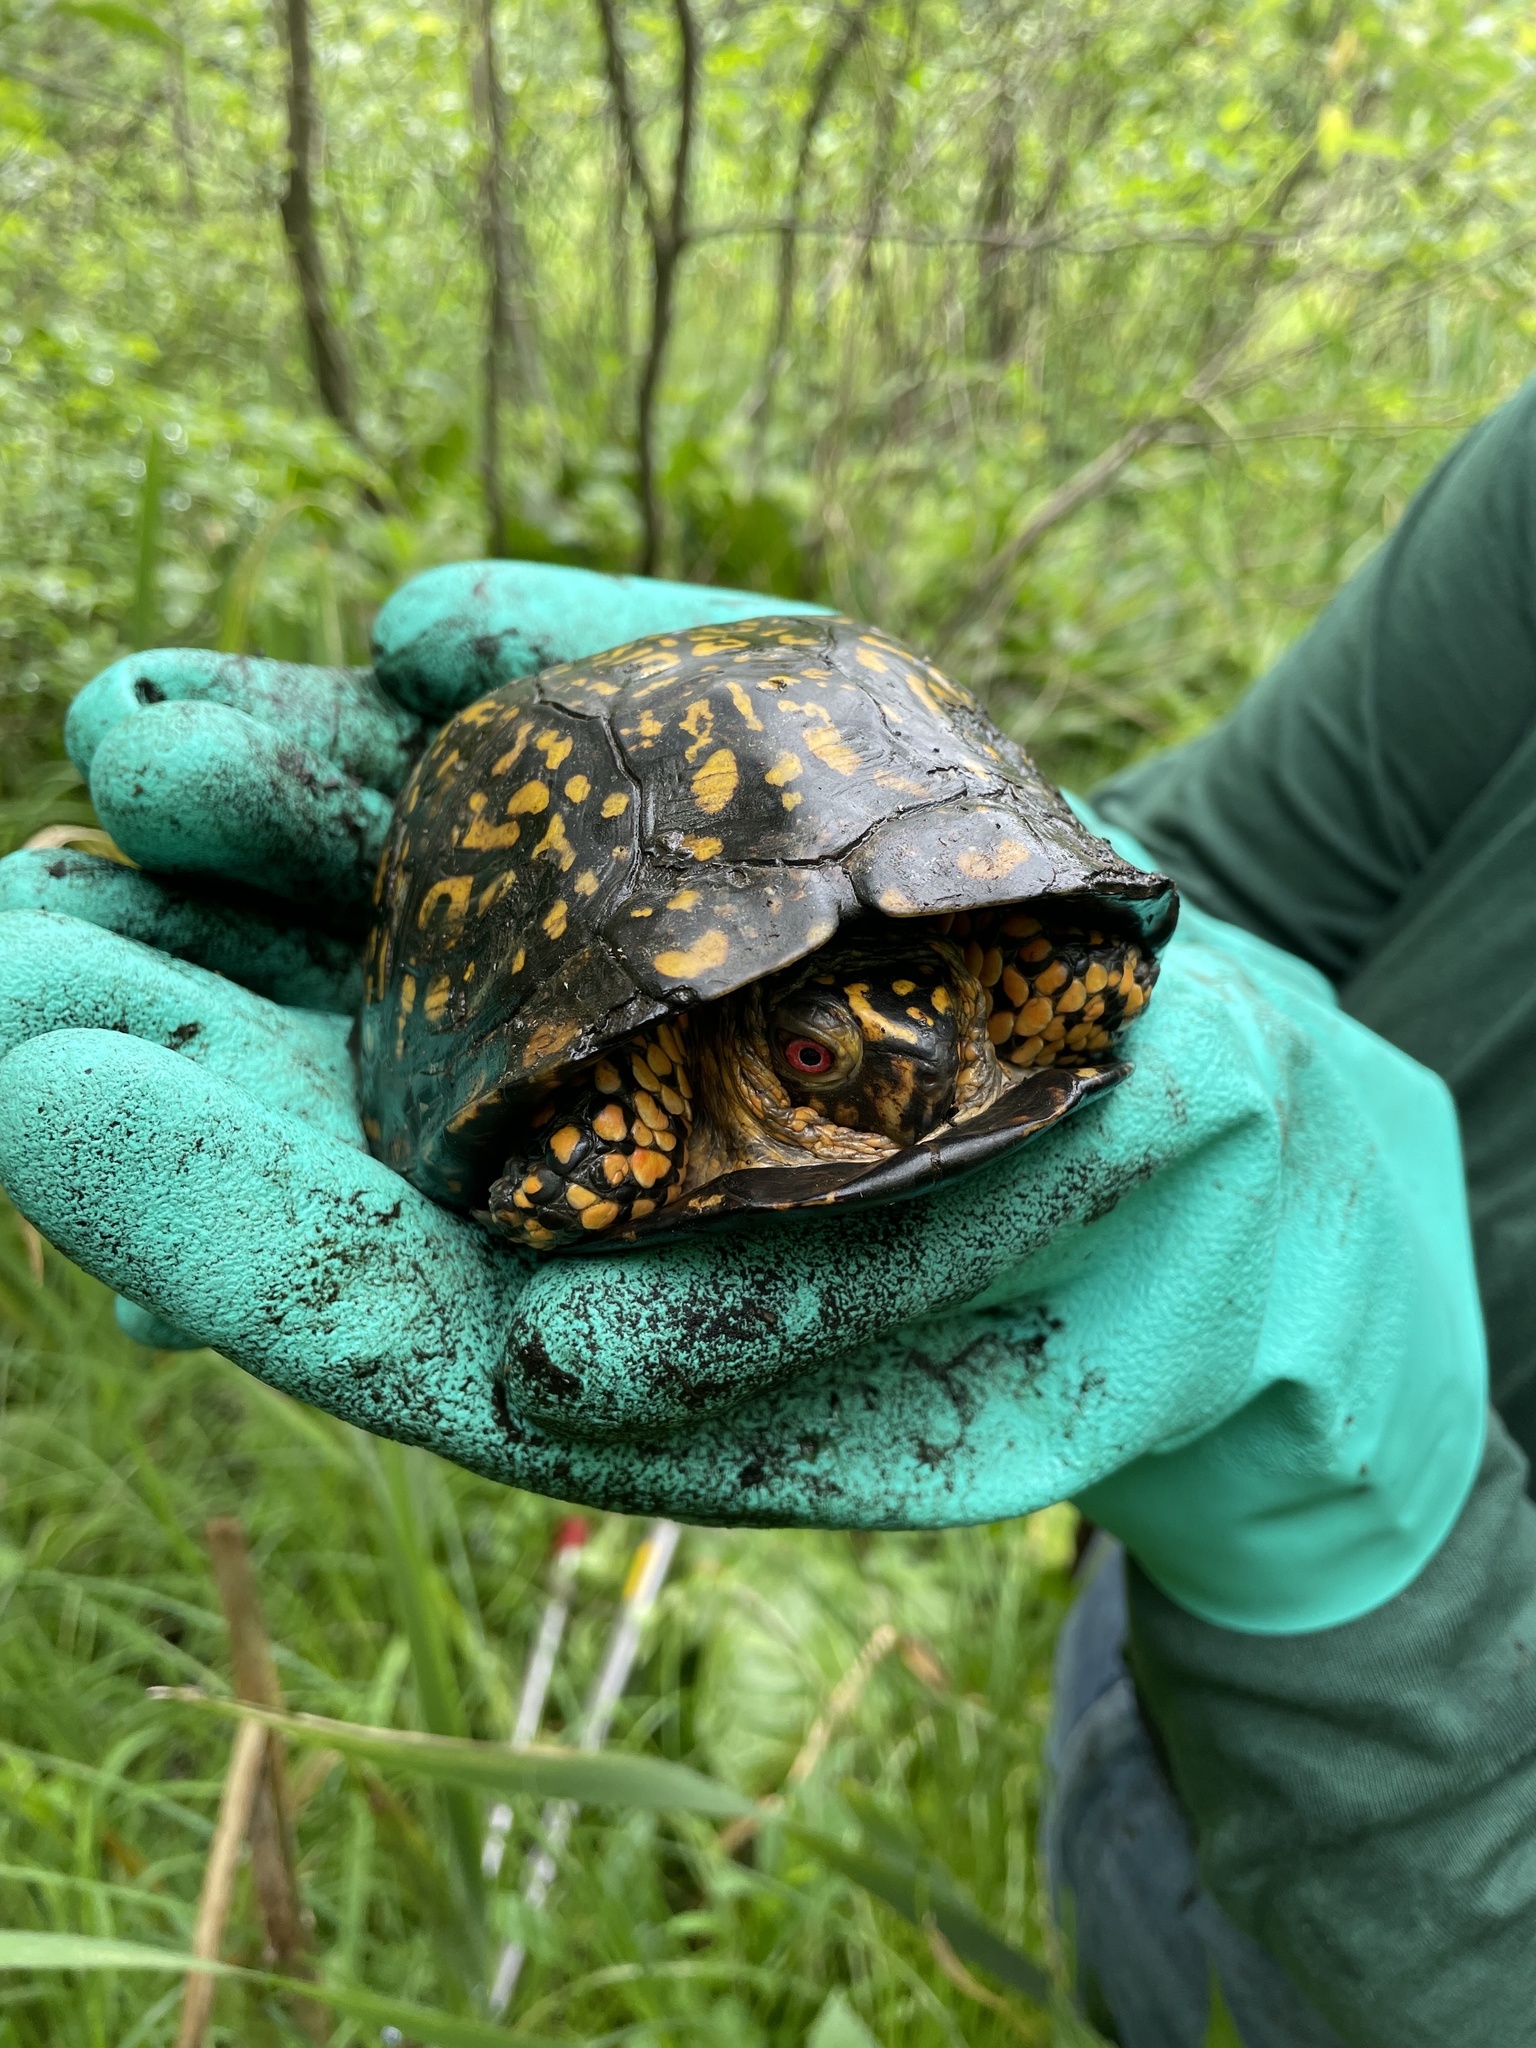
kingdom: Animalia
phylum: Chordata
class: Testudines
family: Emydidae
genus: Terrapene
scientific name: Terrapene carolina
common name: Common box turtle
